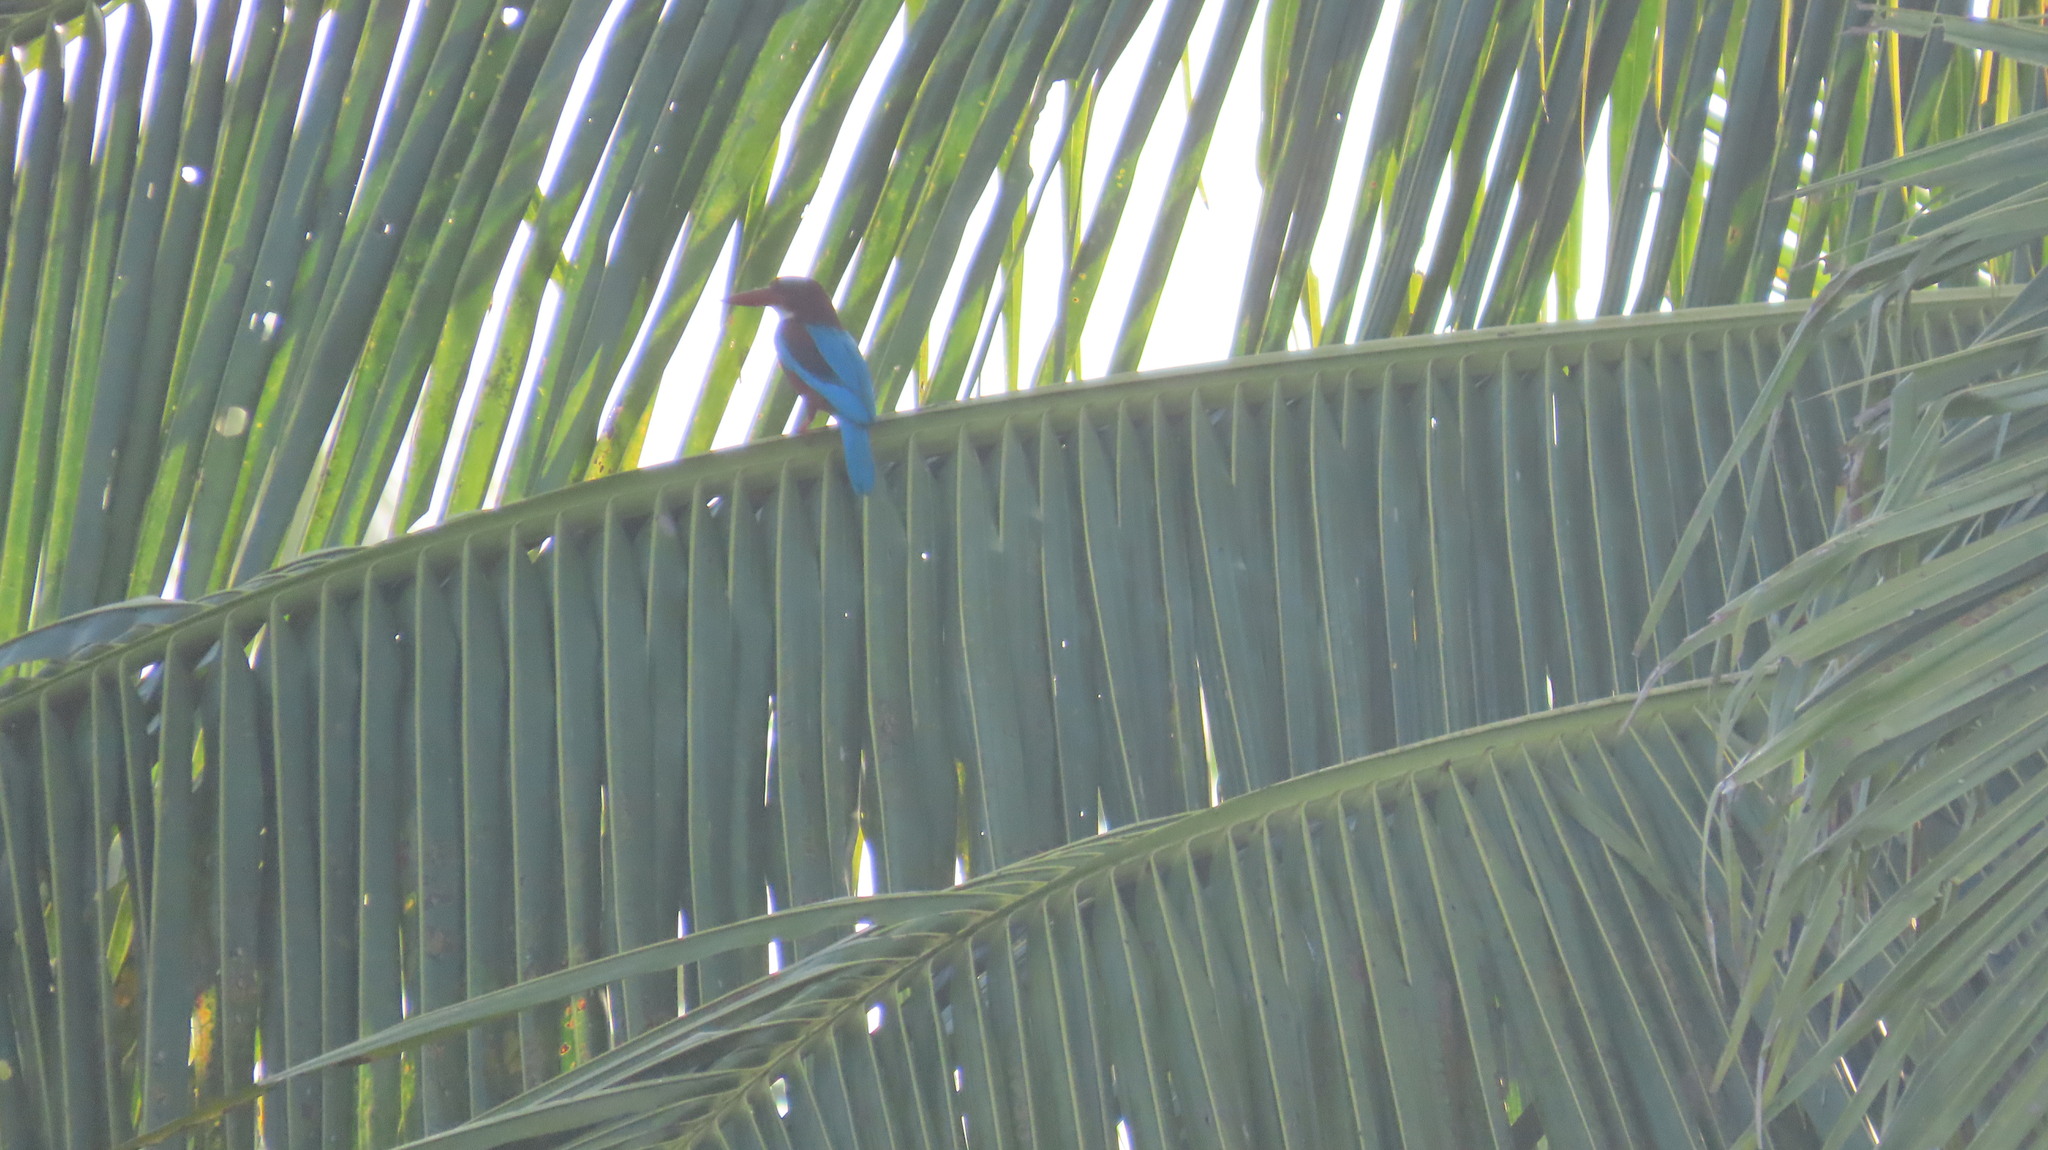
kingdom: Animalia
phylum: Chordata
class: Aves
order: Coraciiformes
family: Alcedinidae
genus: Halcyon
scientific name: Halcyon smyrnensis
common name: White-throated kingfisher
